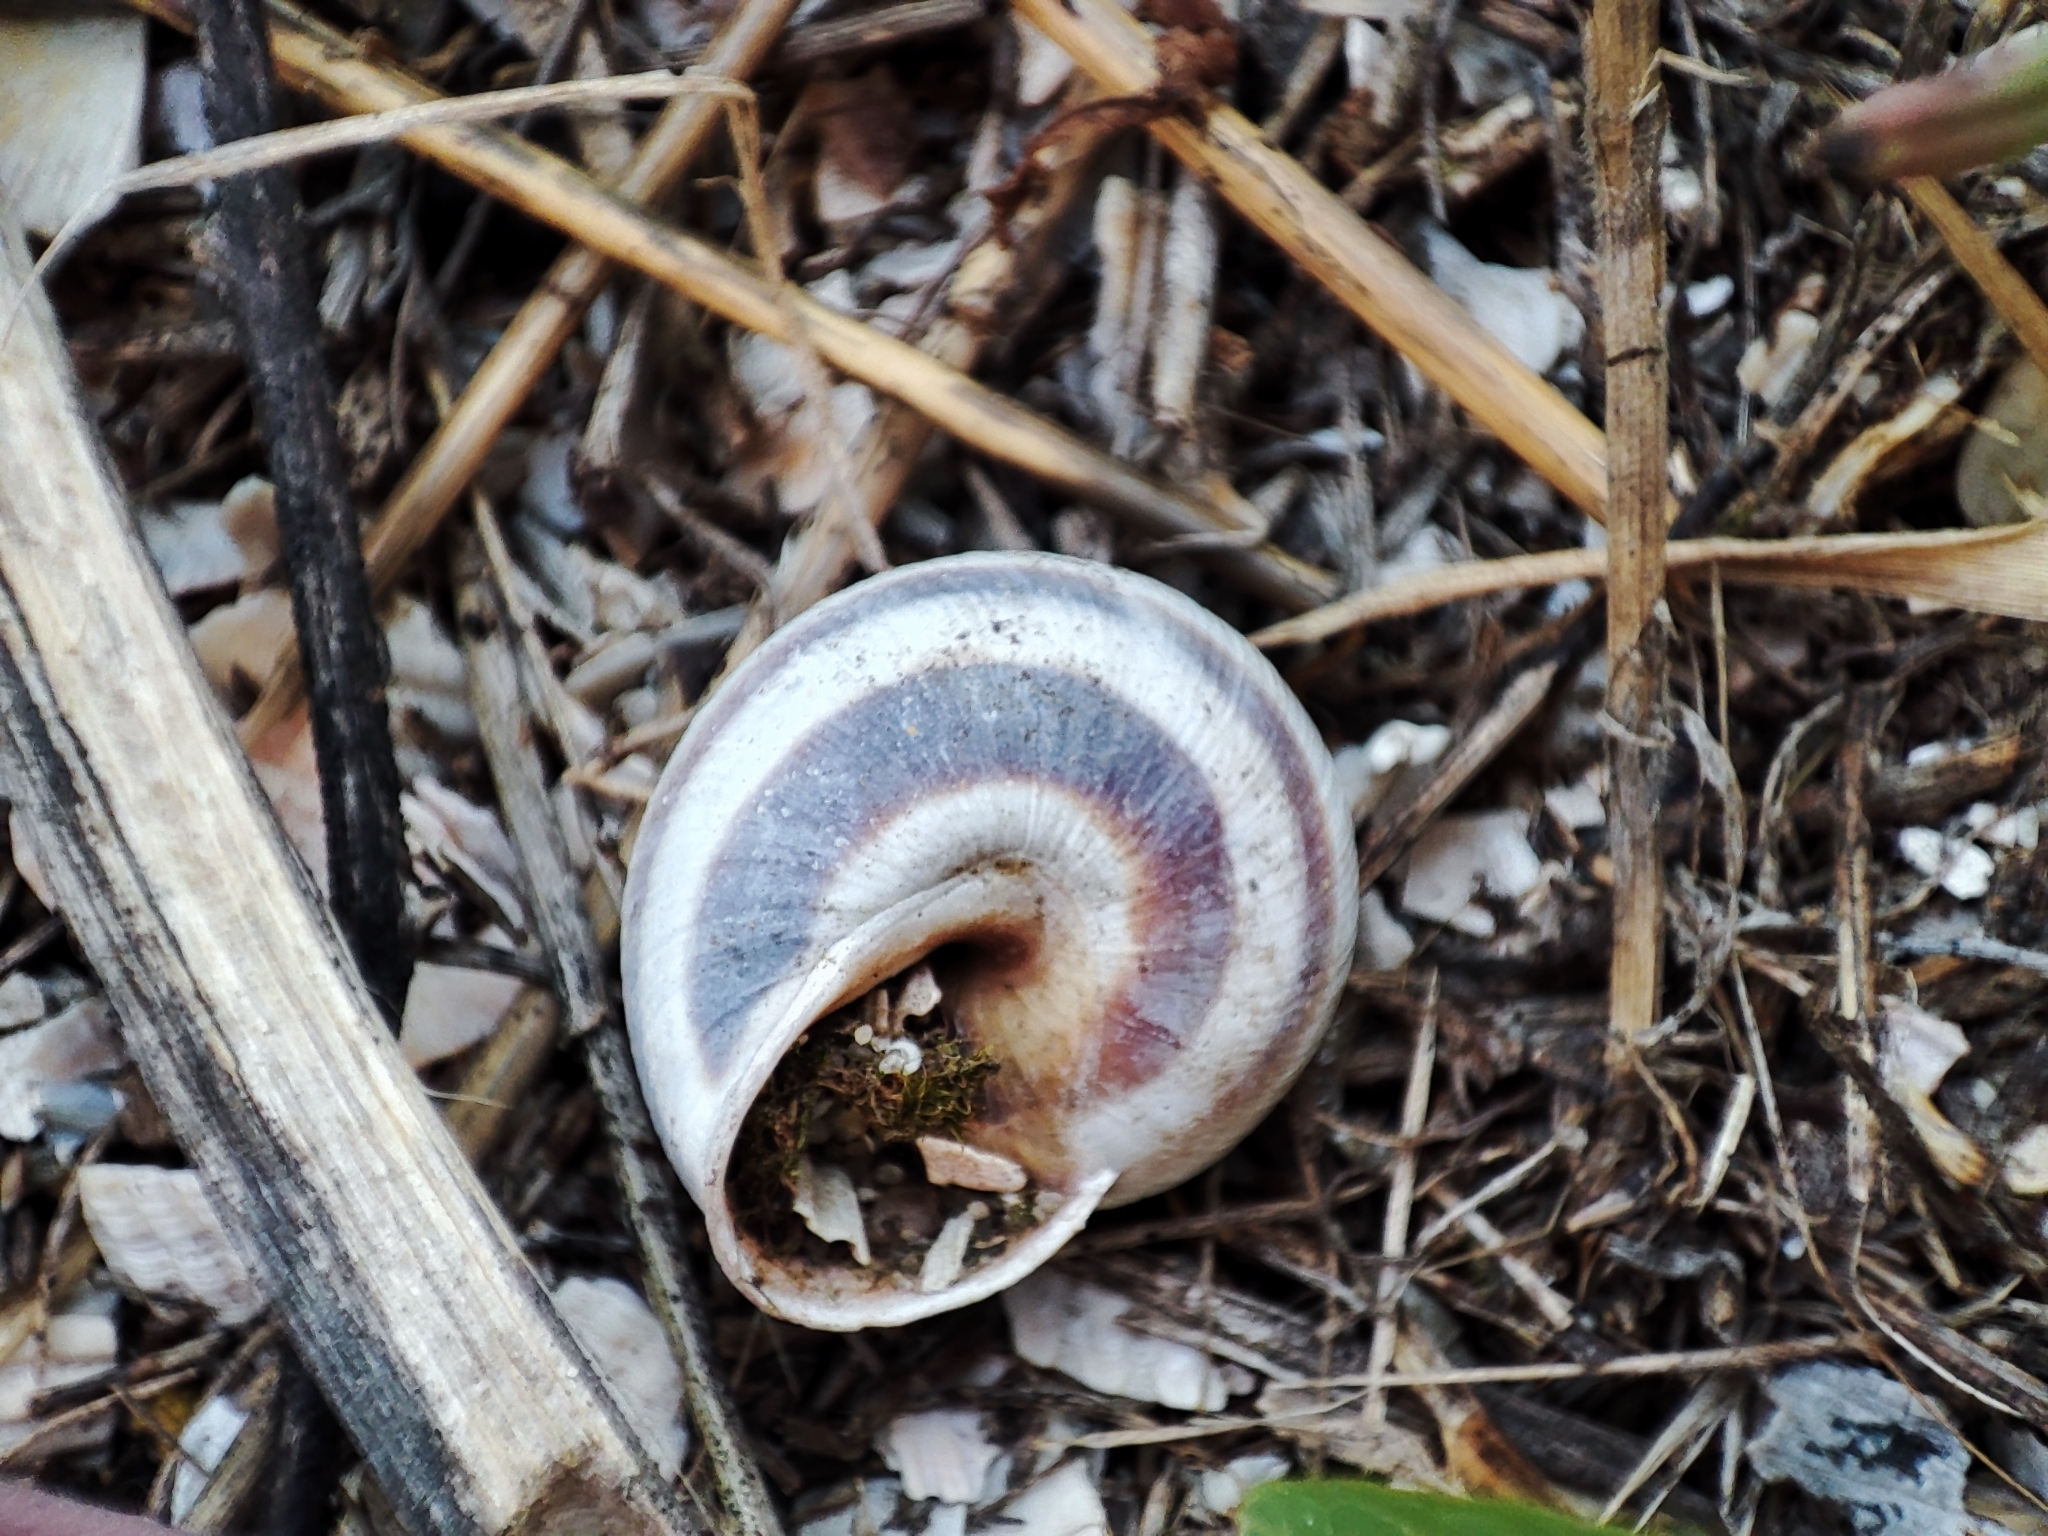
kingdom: Animalia
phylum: Mollusca
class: Gastropoda
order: Stylommatophora
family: Helicidae
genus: Caucasotachea
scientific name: Caucasotachea vindobonensis
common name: European helicid land snail
